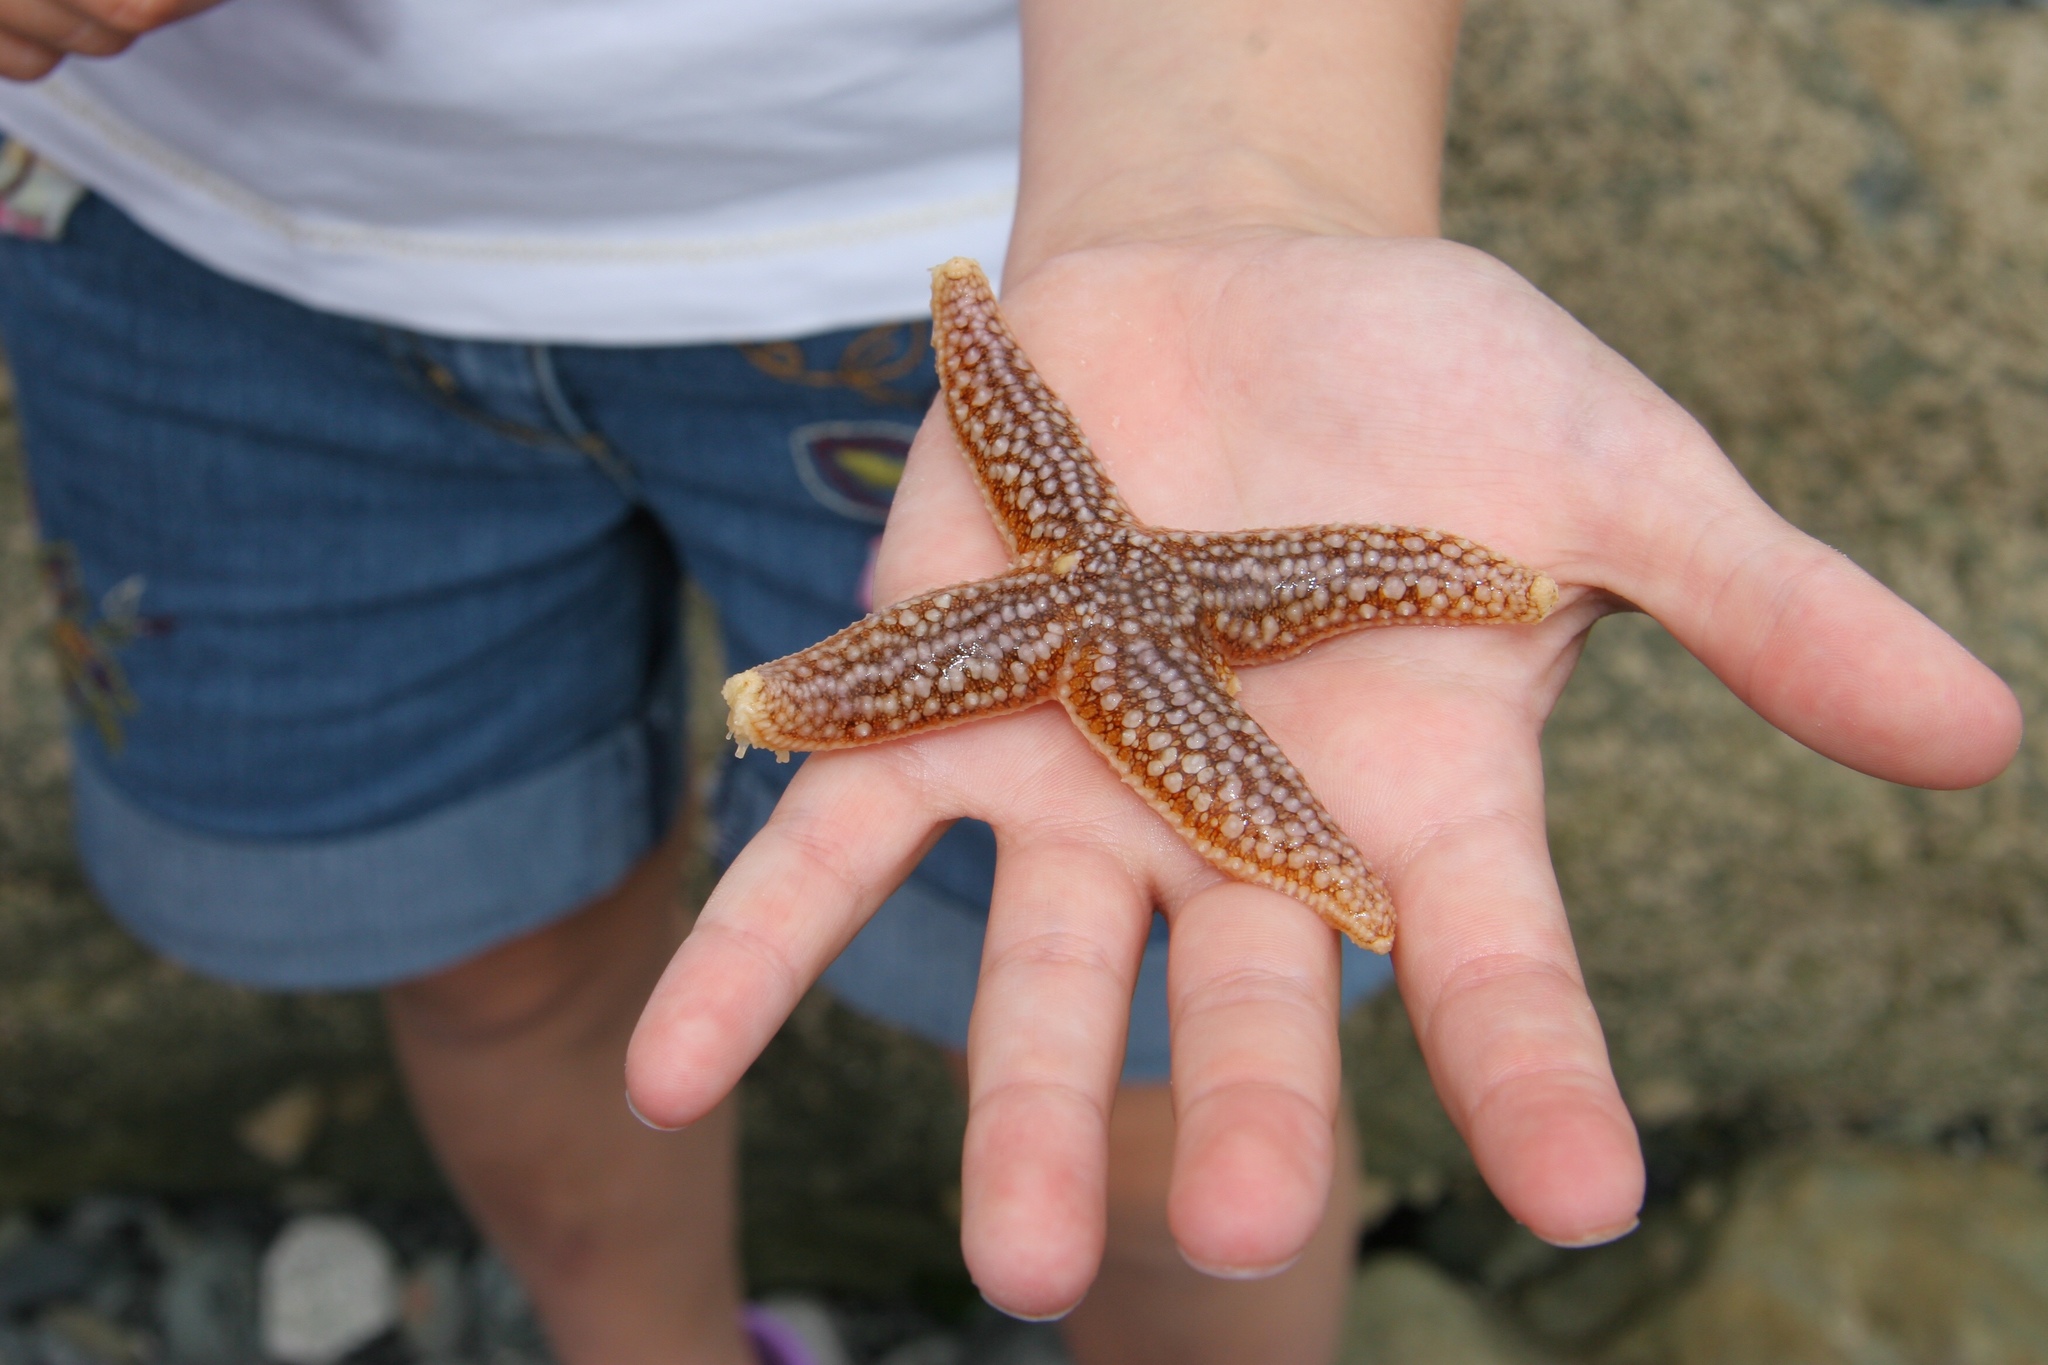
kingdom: Animalia
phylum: Echinodermata
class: Asteroidea
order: Forcipulatida
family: Asteriidae
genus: Asterias
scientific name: Asterias rubens
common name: Common starfish
